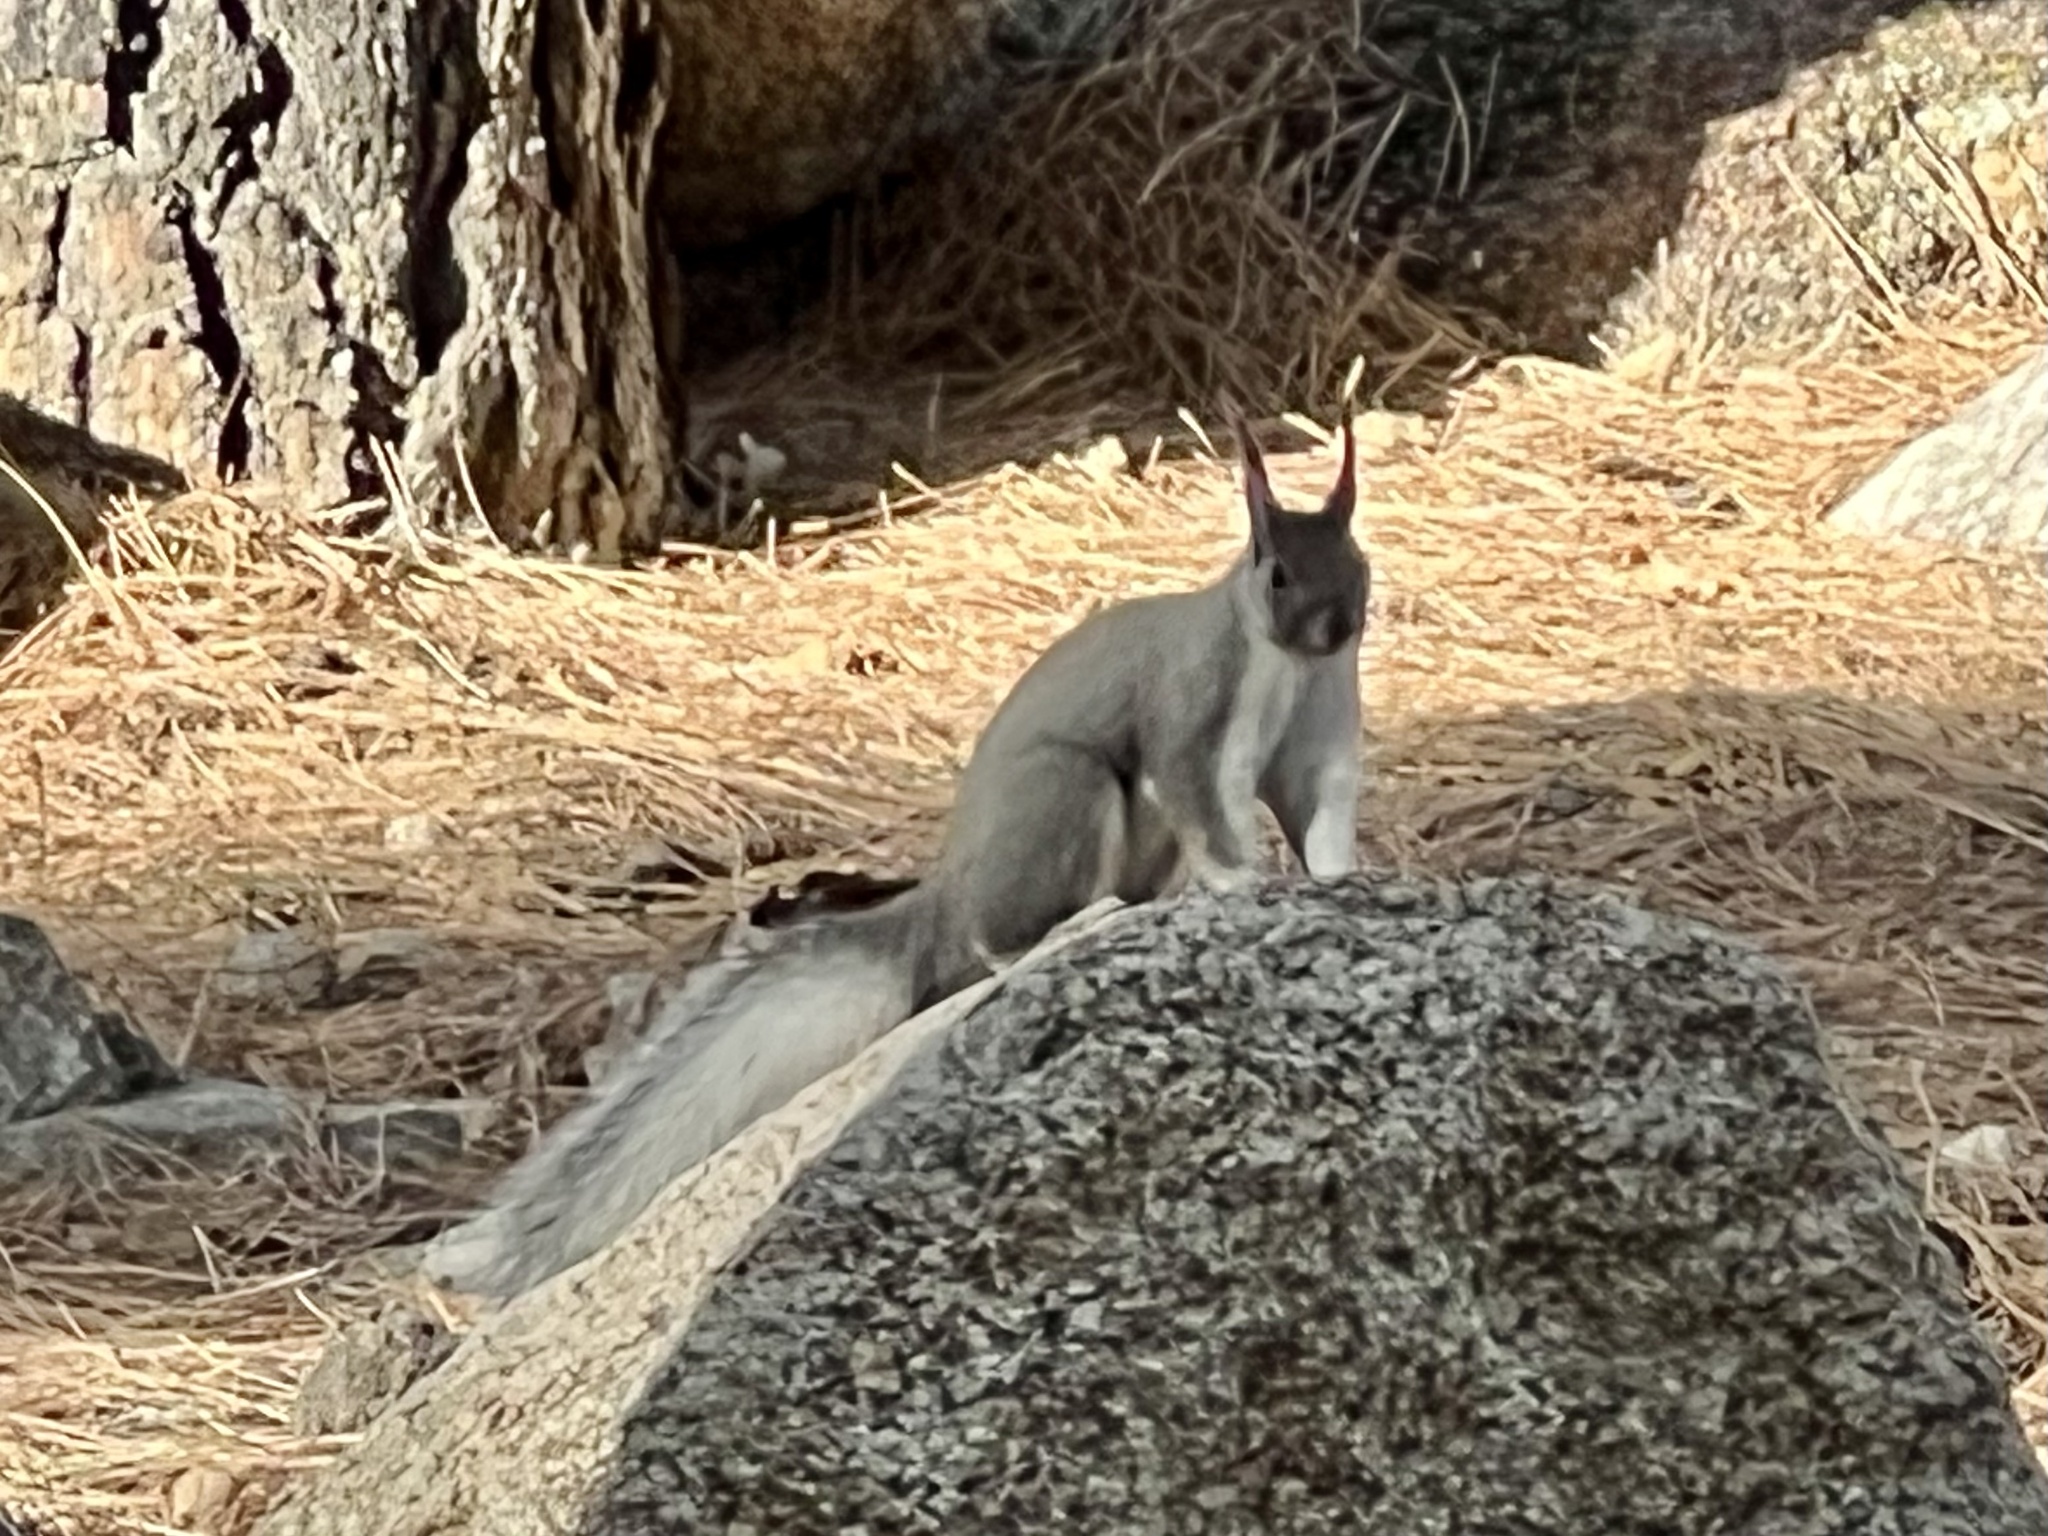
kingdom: Animalia
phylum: Chordata
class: Mammalia
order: Rodentia
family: Sciuridae
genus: Sciurus
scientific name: Sciurus aberti
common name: Abert's squirrel
